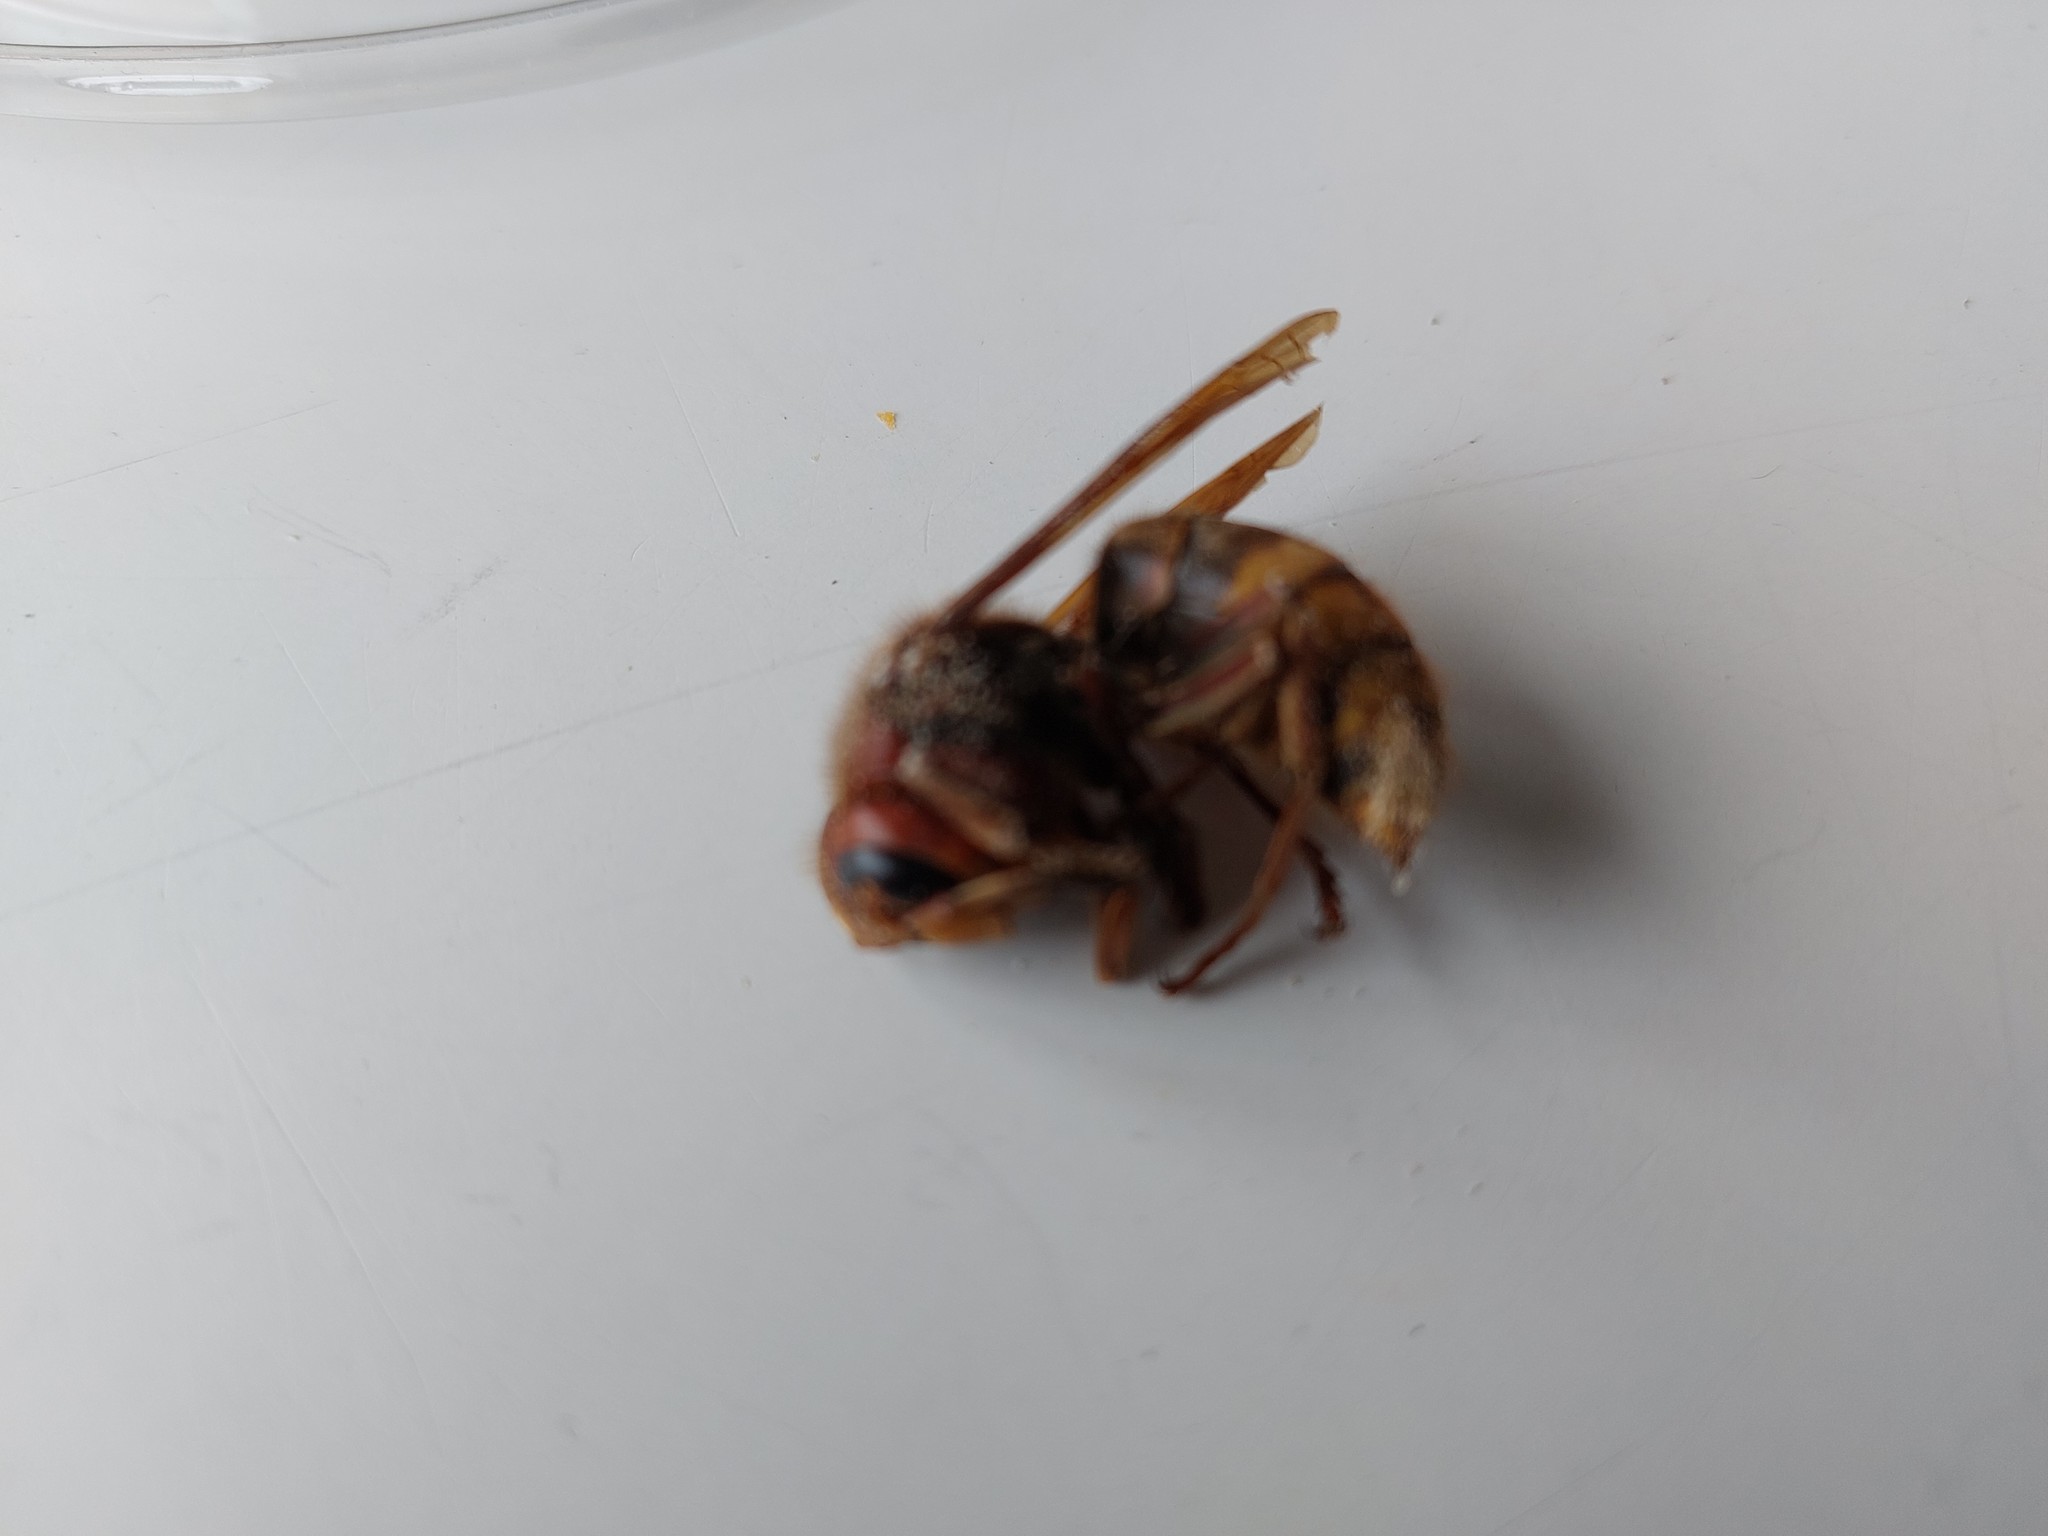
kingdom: Animalia
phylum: Arthropoda
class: Insecta
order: Hymenoptera
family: Vespidae
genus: Vespa
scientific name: Vespa crabro
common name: Hornet
